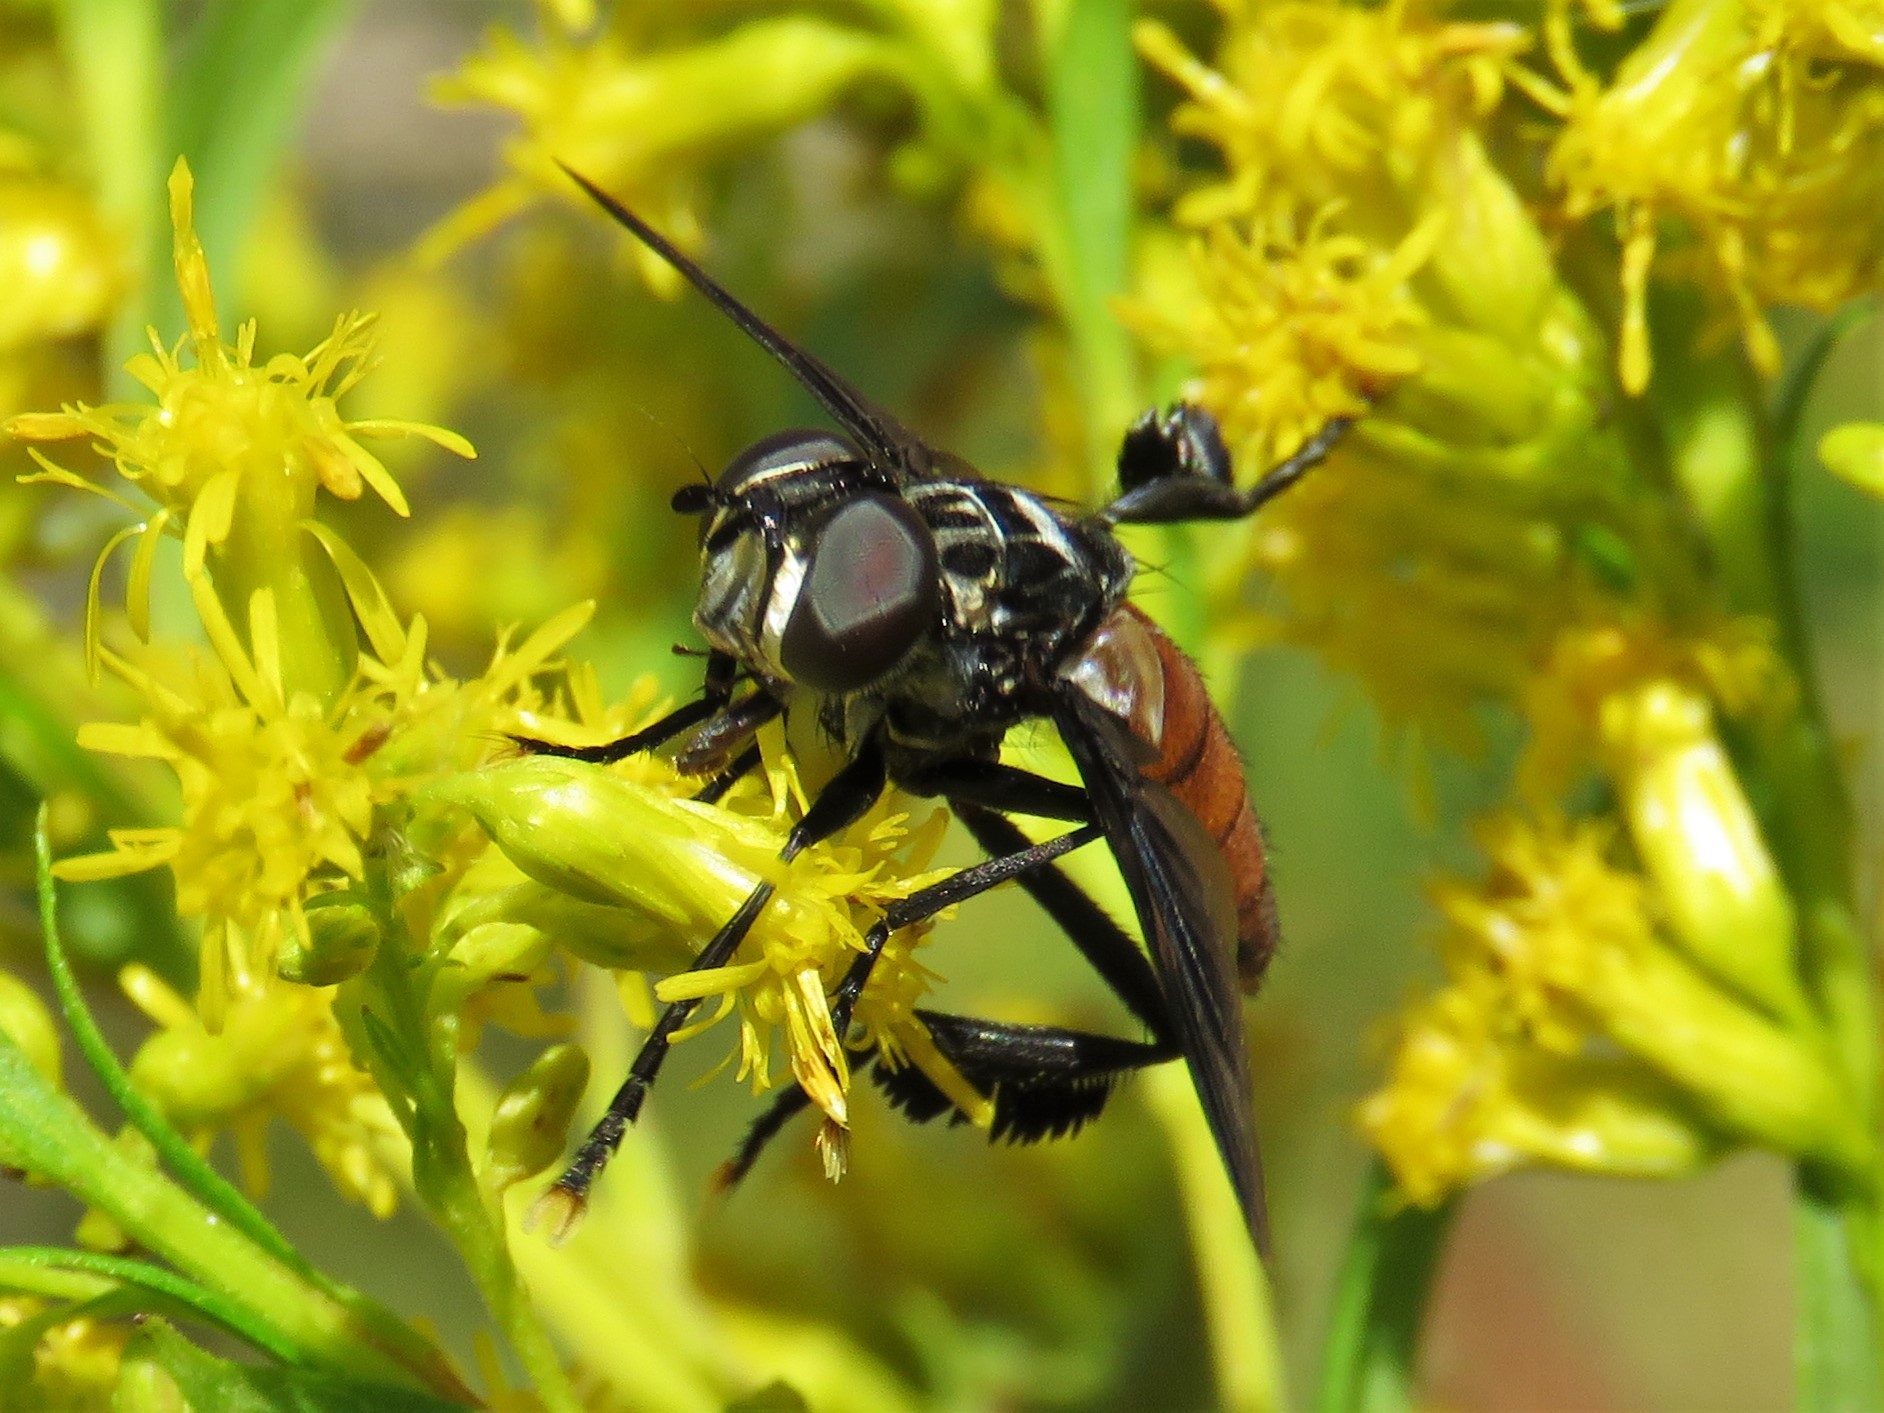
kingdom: Animalia
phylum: Arthropoda
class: Insecta
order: Diptera
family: Tachinidae
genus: Trichopoda
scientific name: Trichopoda pennipes
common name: Tachinid fly
